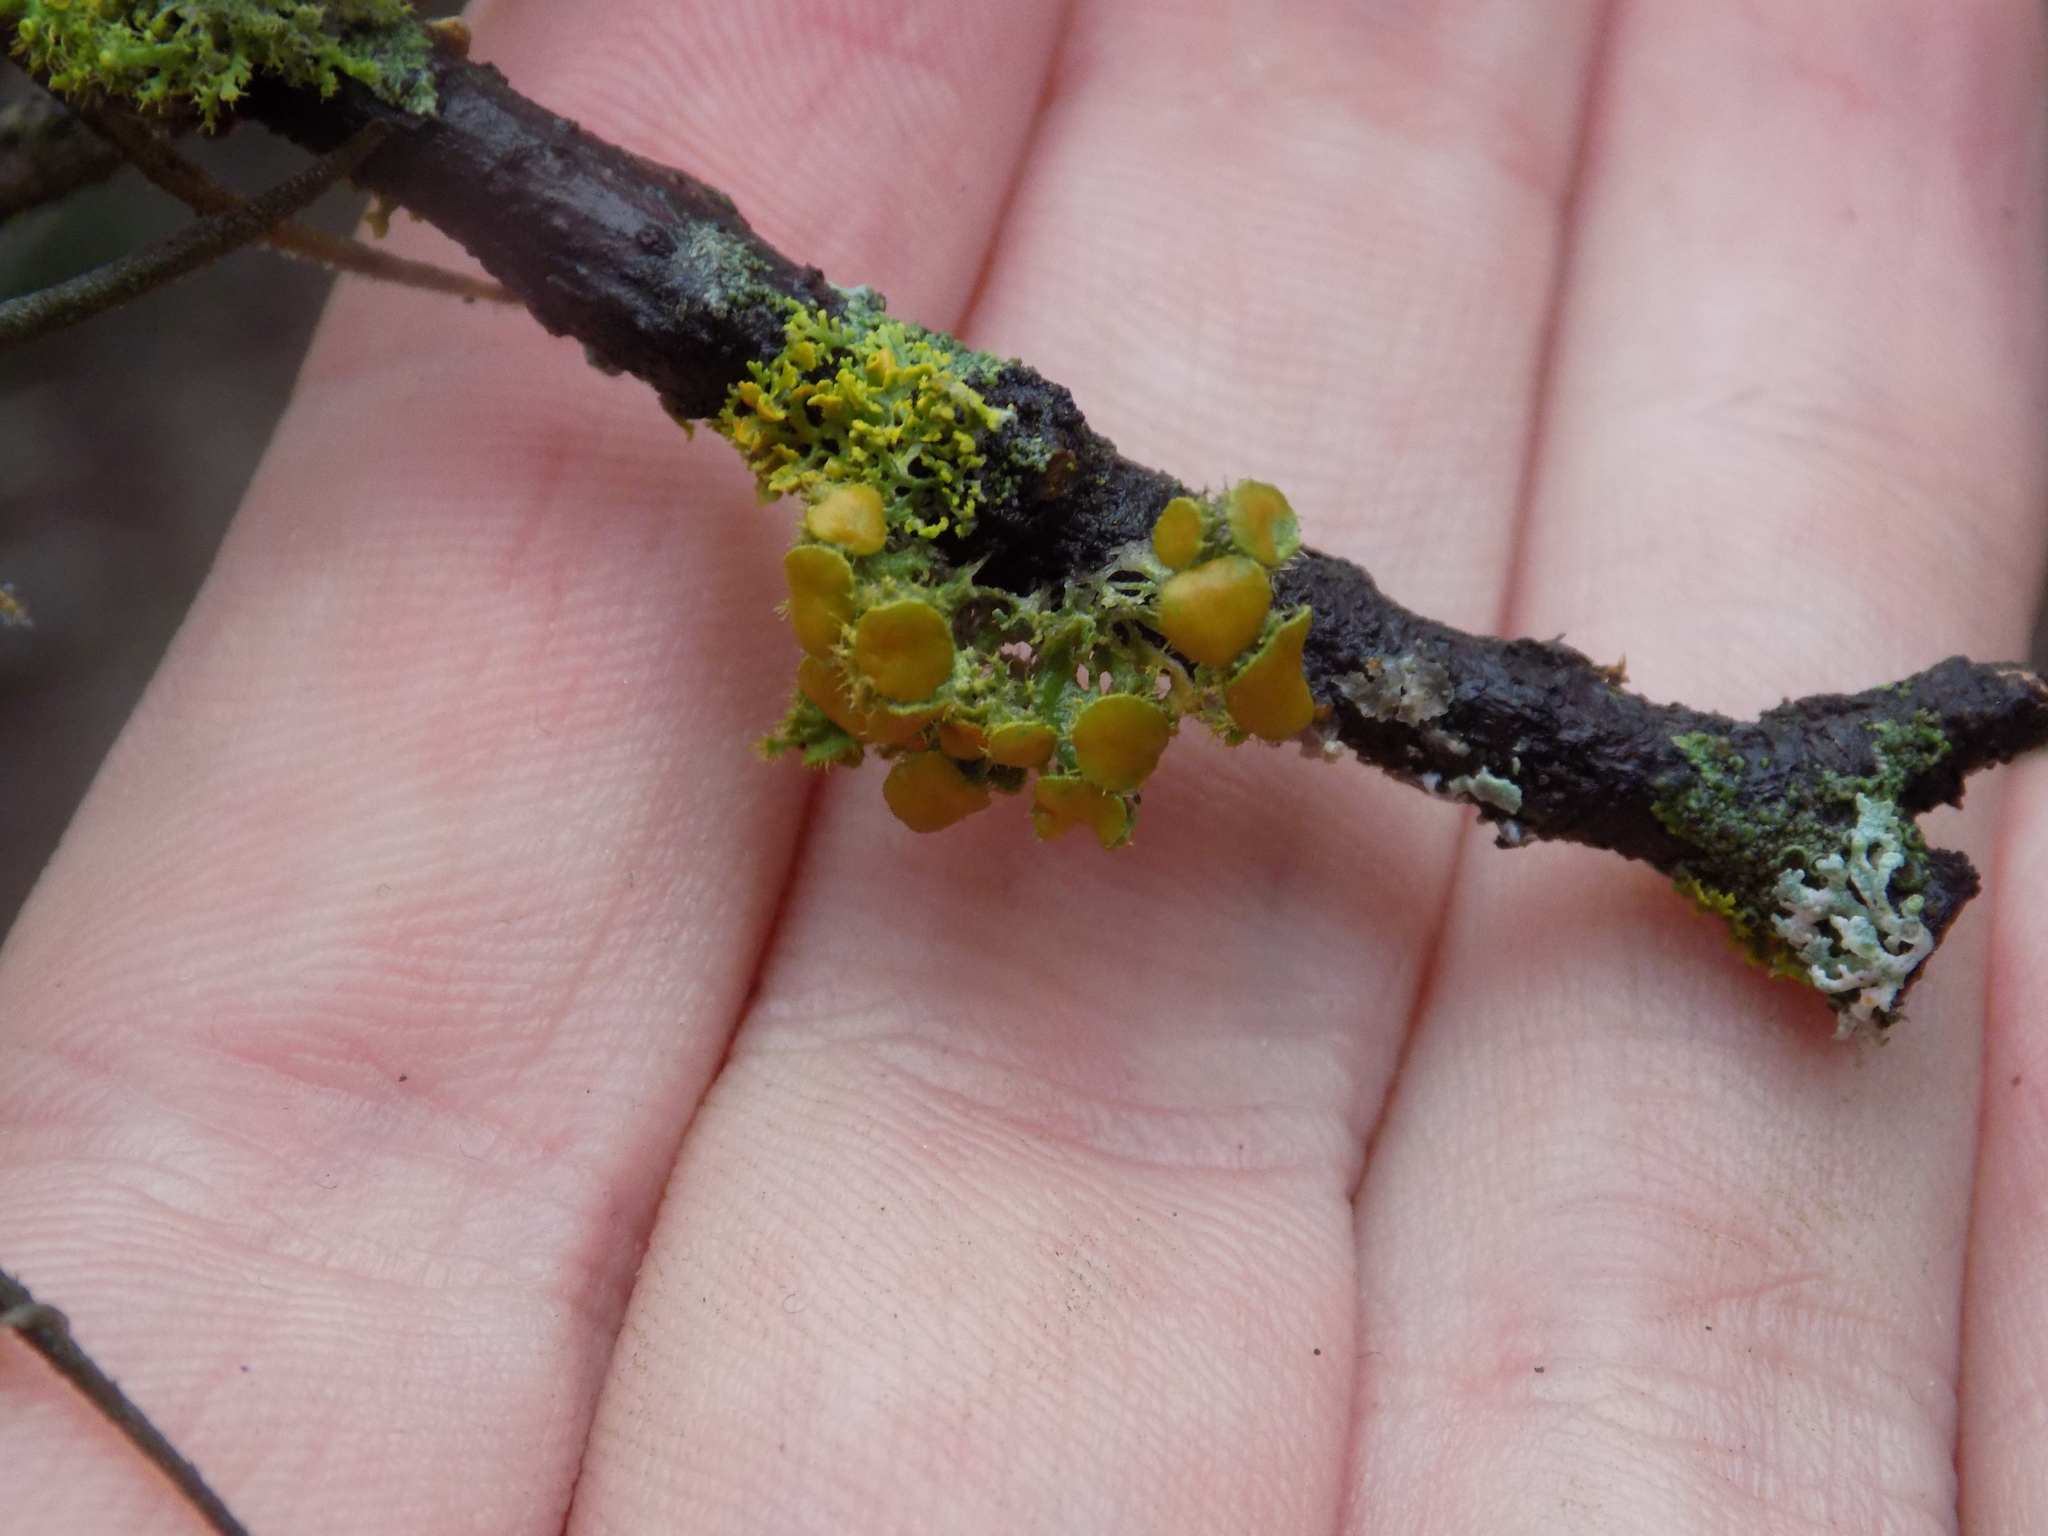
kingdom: Fungi
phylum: Ascomycota
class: Lecanoromycetes
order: Teloschistales
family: Teloschistaceae
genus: Niorma
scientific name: Niorma chrysophthalma
